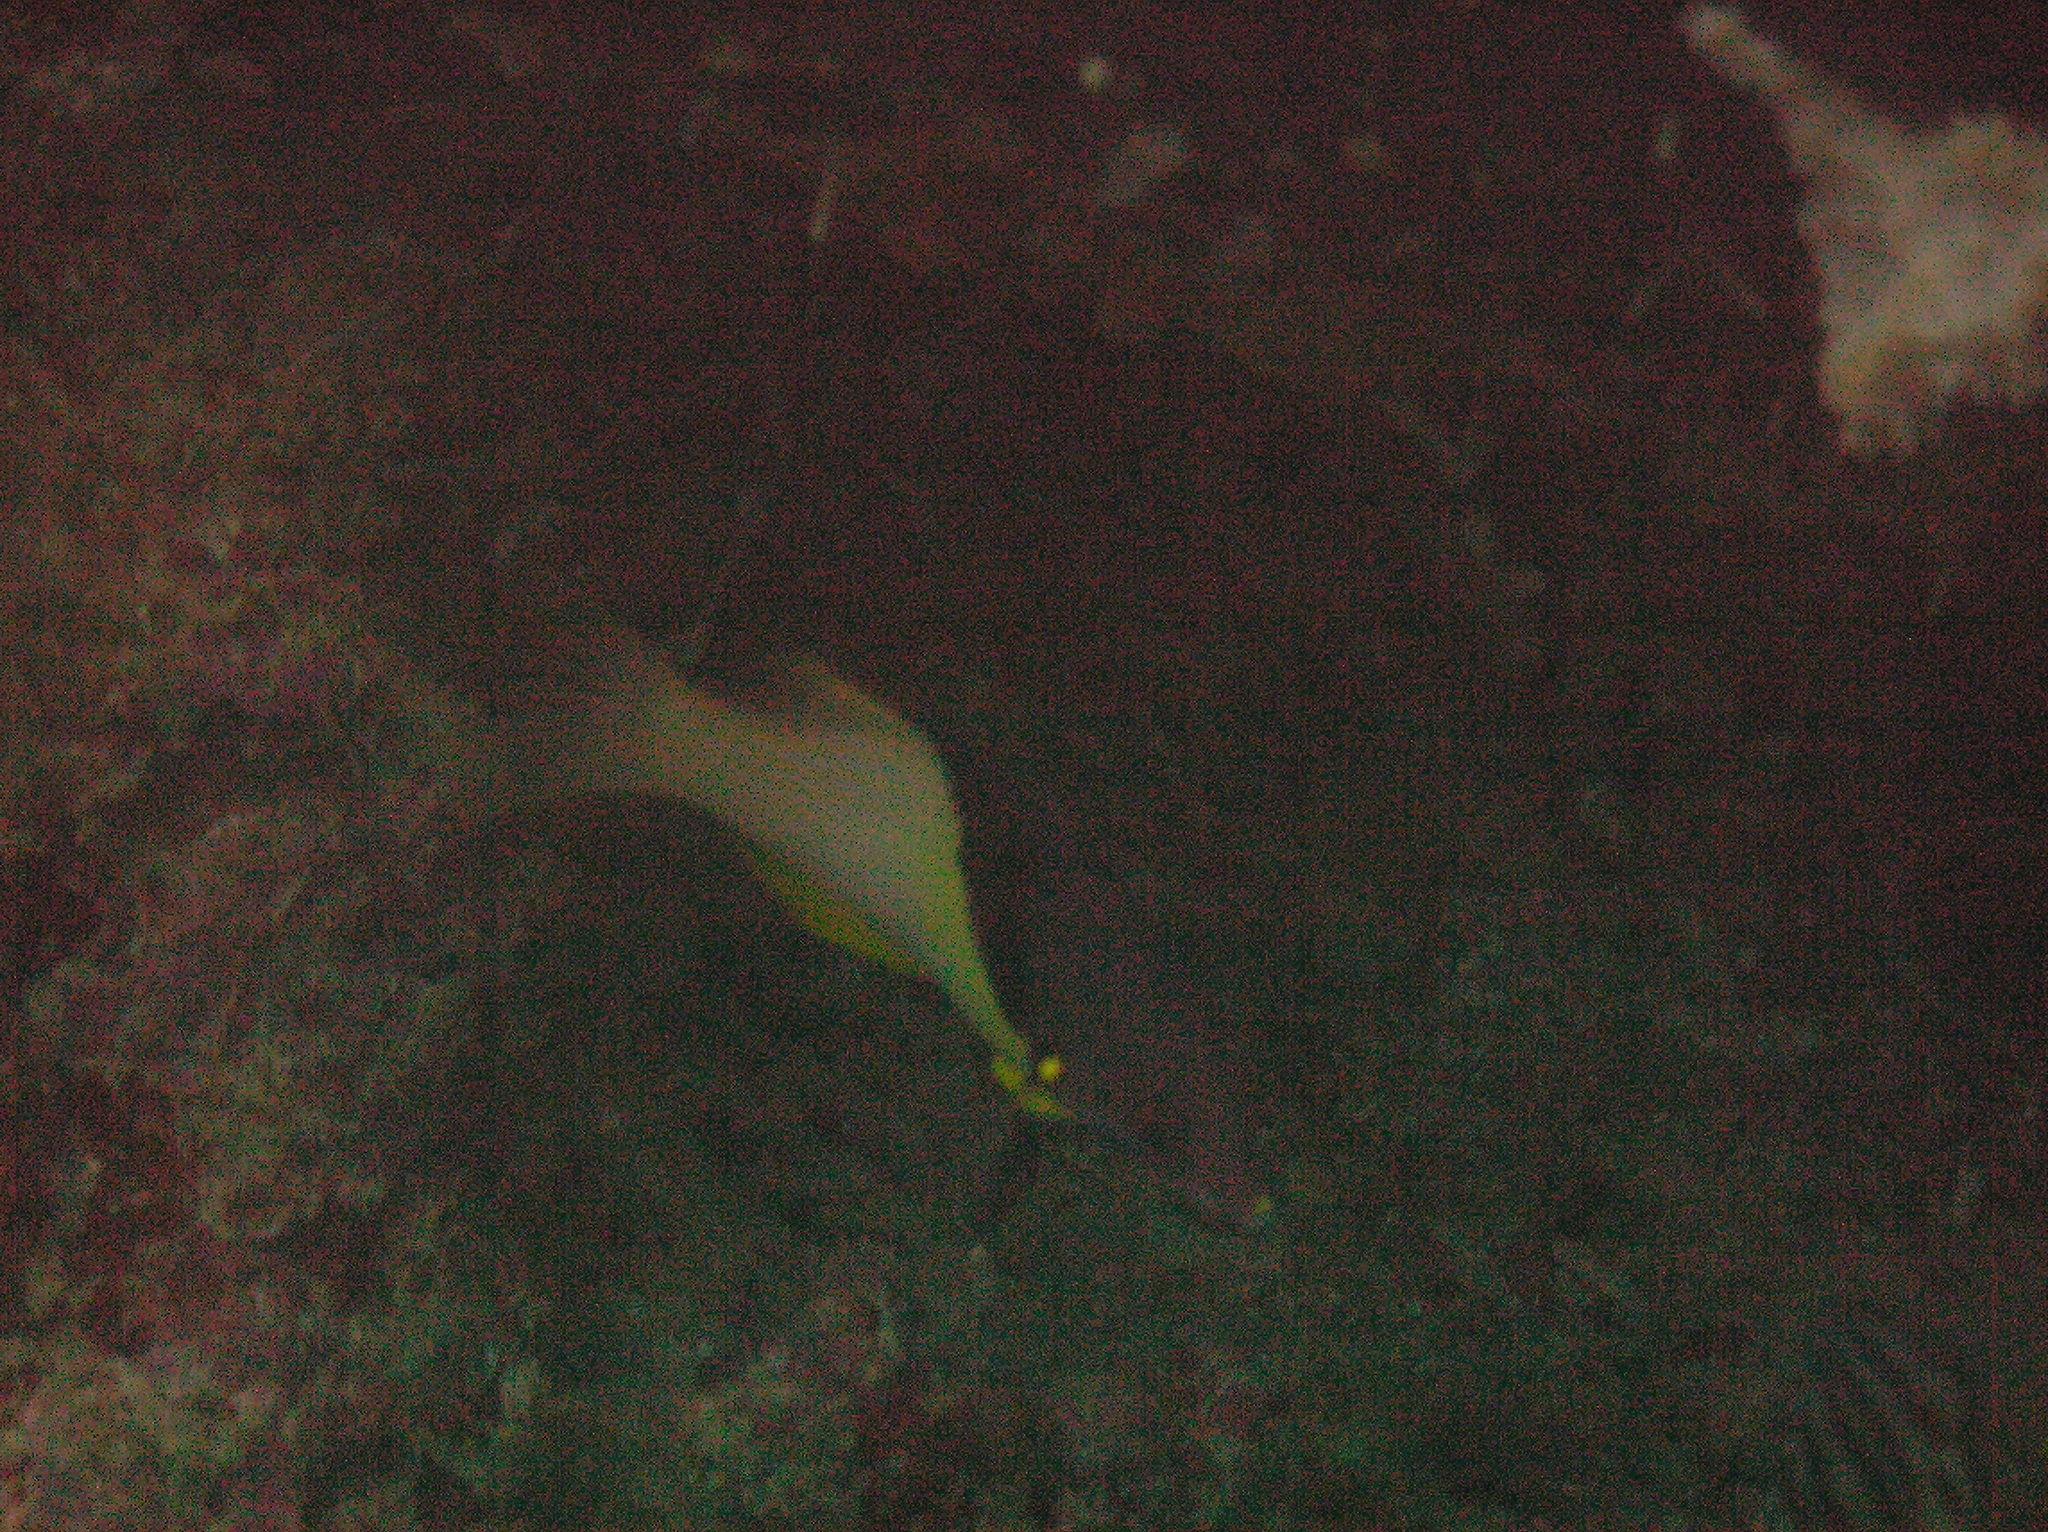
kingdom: Animalia
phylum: Chordata
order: Perciformes
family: Labridae
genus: Bodianus
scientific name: Bodianus mesothorax
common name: Coral hogfish
